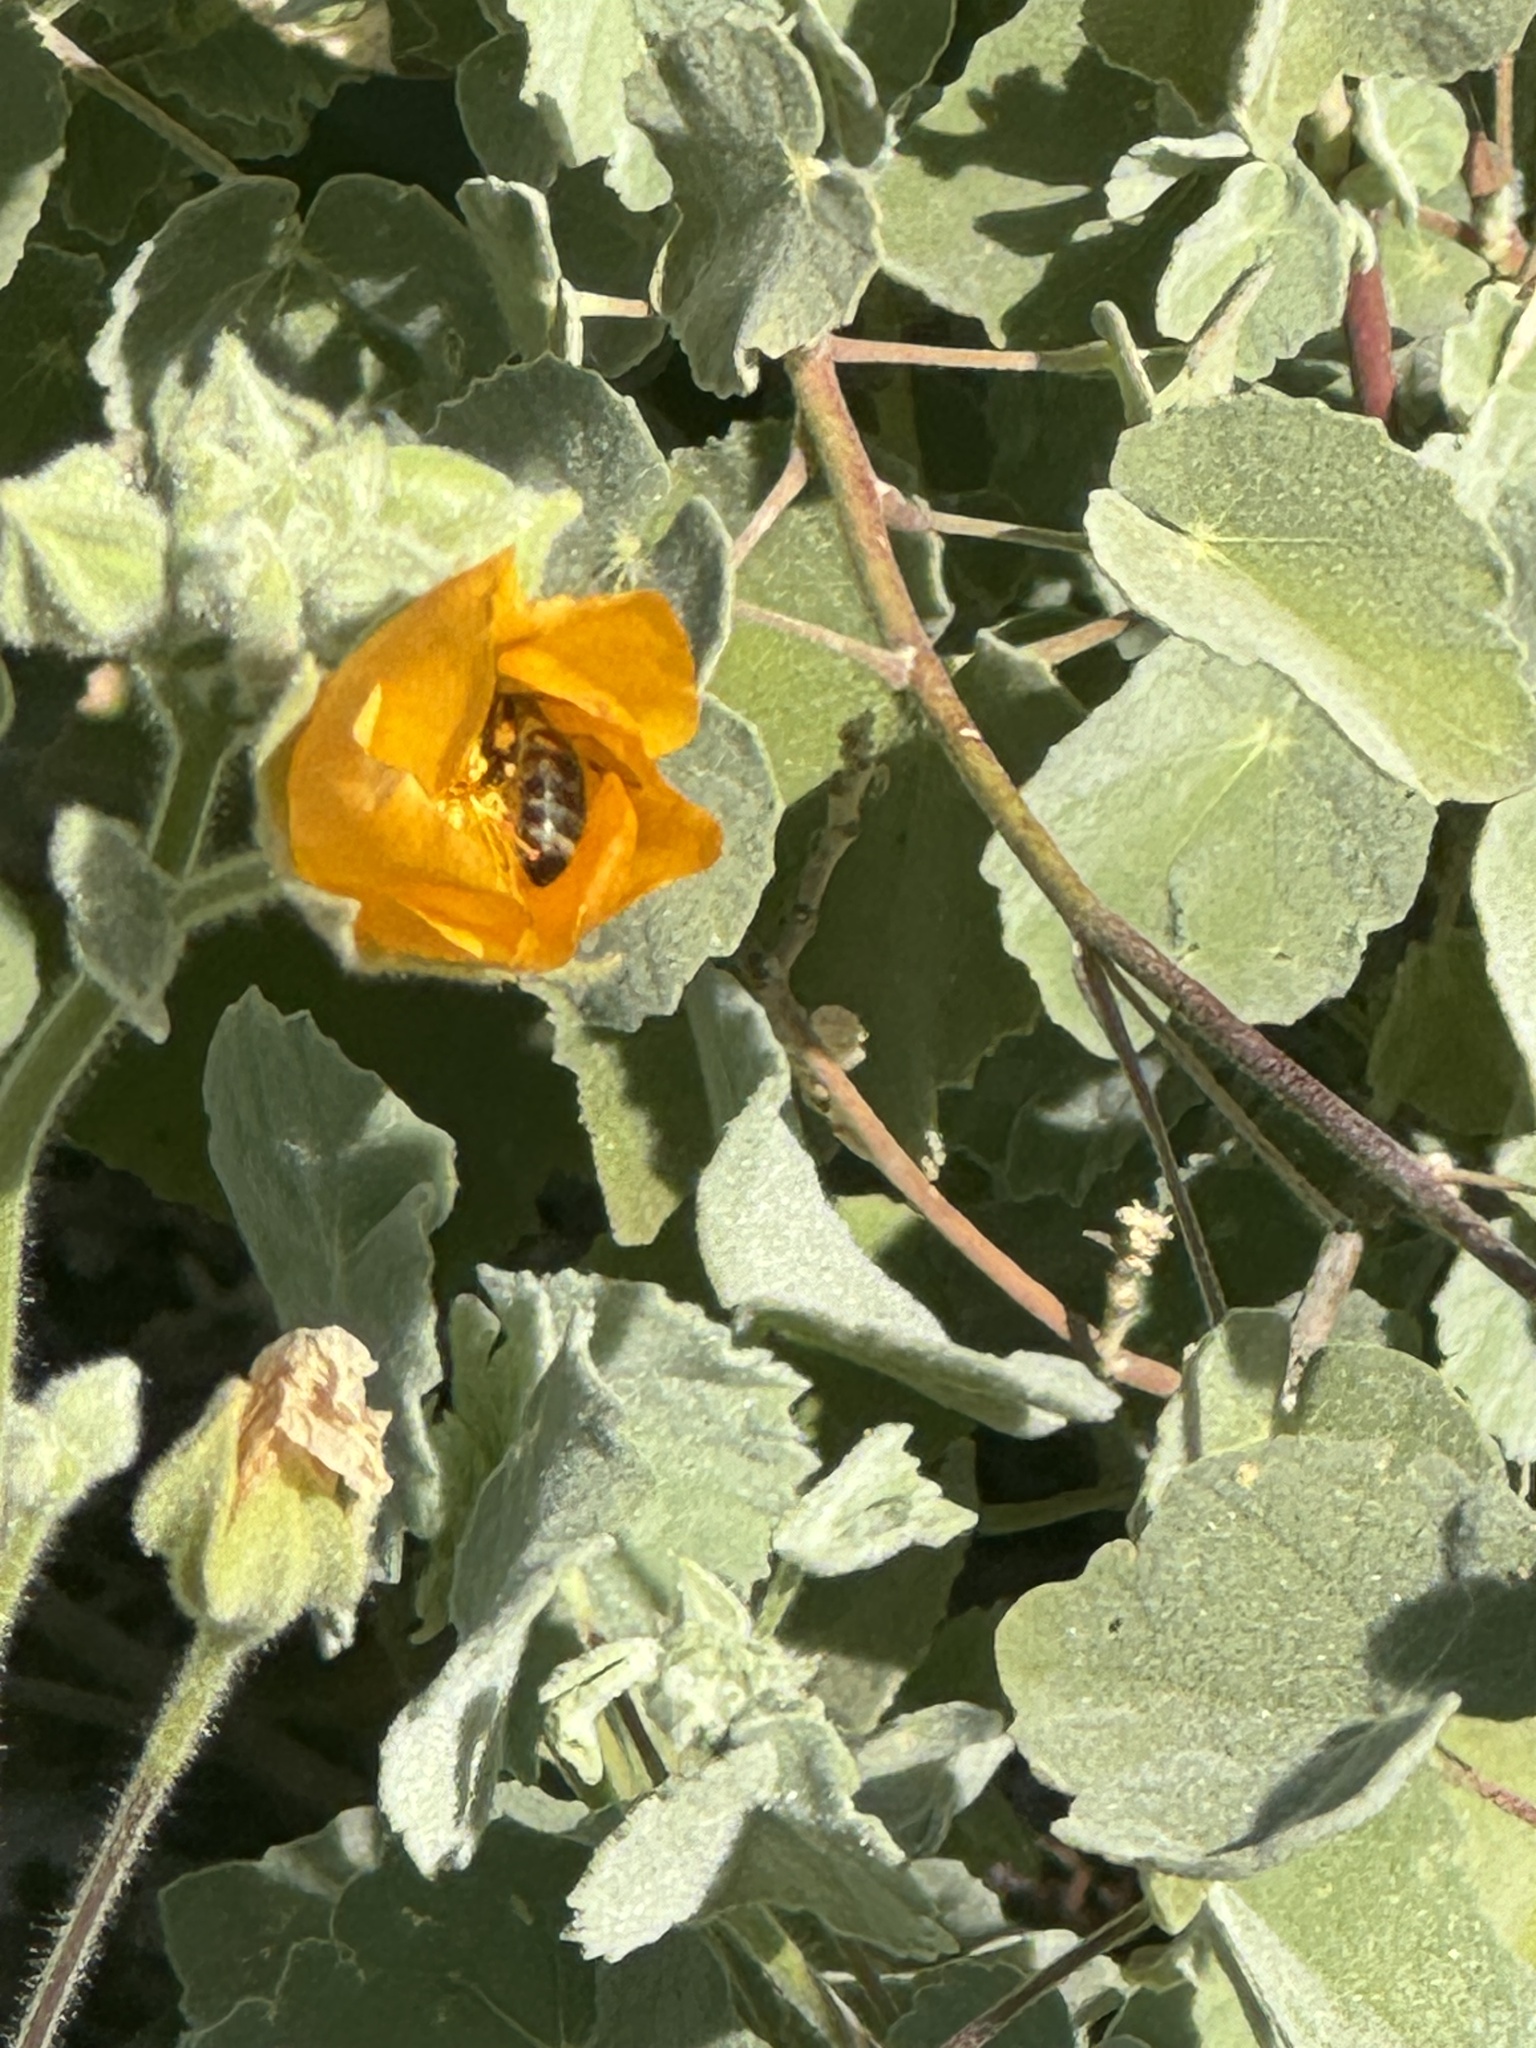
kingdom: Animalia
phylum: Arthropoda
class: Insecta
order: Hymenoptera
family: Apidae
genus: Apis
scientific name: Apis mellifera
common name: Honey bee
